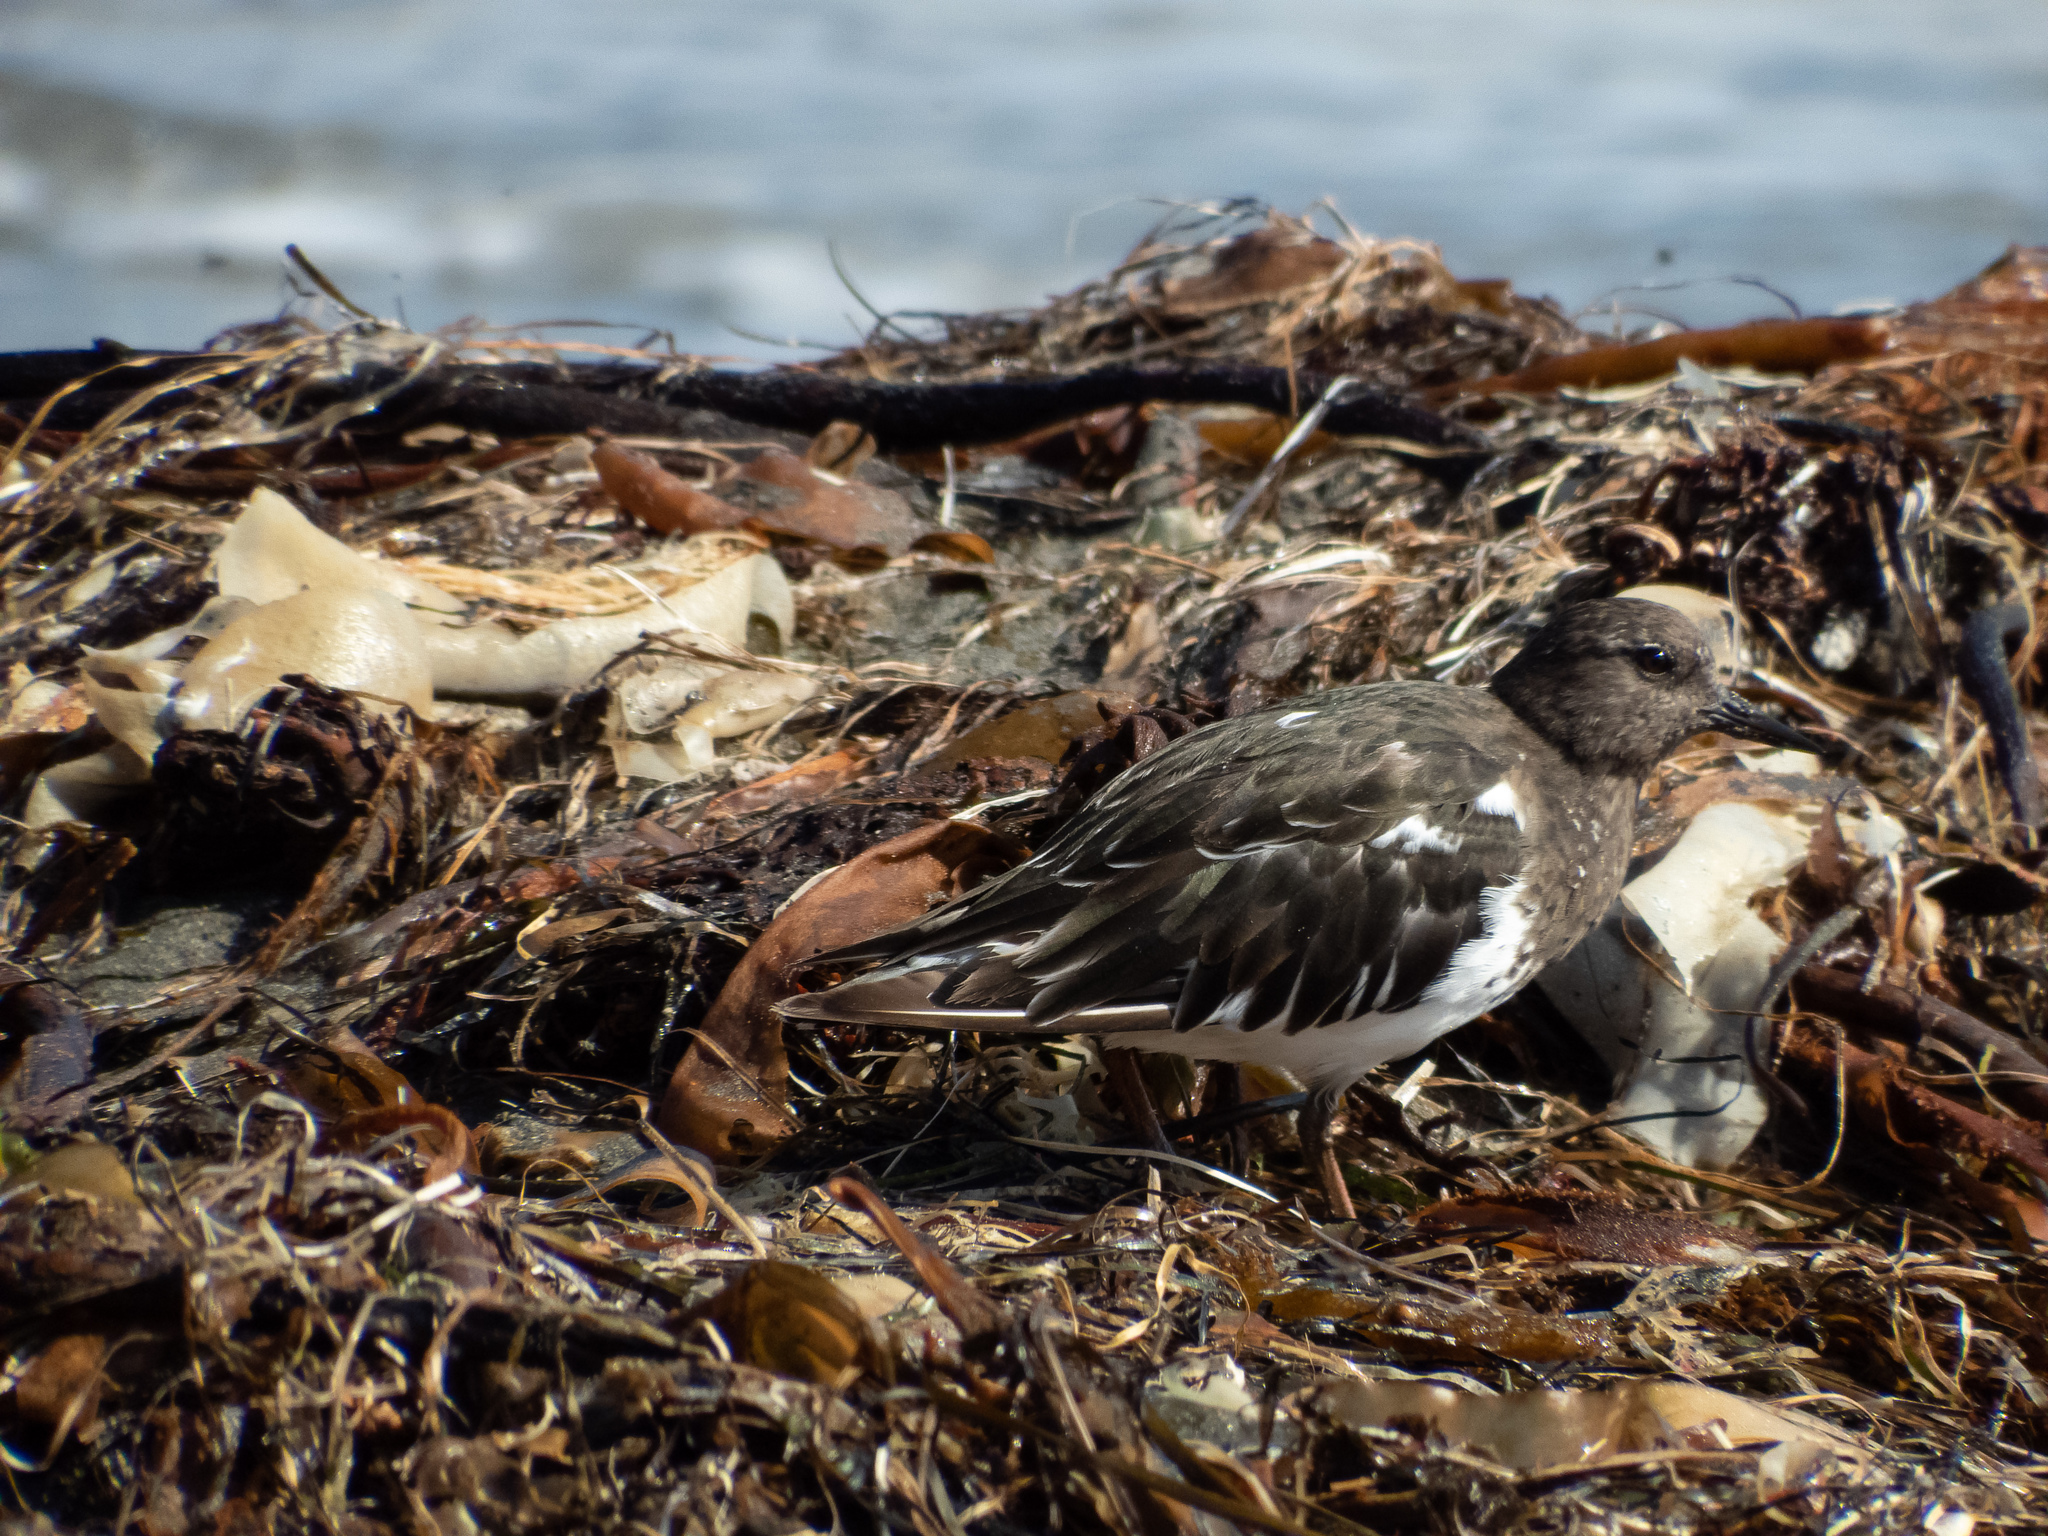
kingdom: Animalia
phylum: Chordata
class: Aves
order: Charadriiformes
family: Scolopacidae
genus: Arenaria
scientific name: Arenaria melanocephala
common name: Black turnstone
